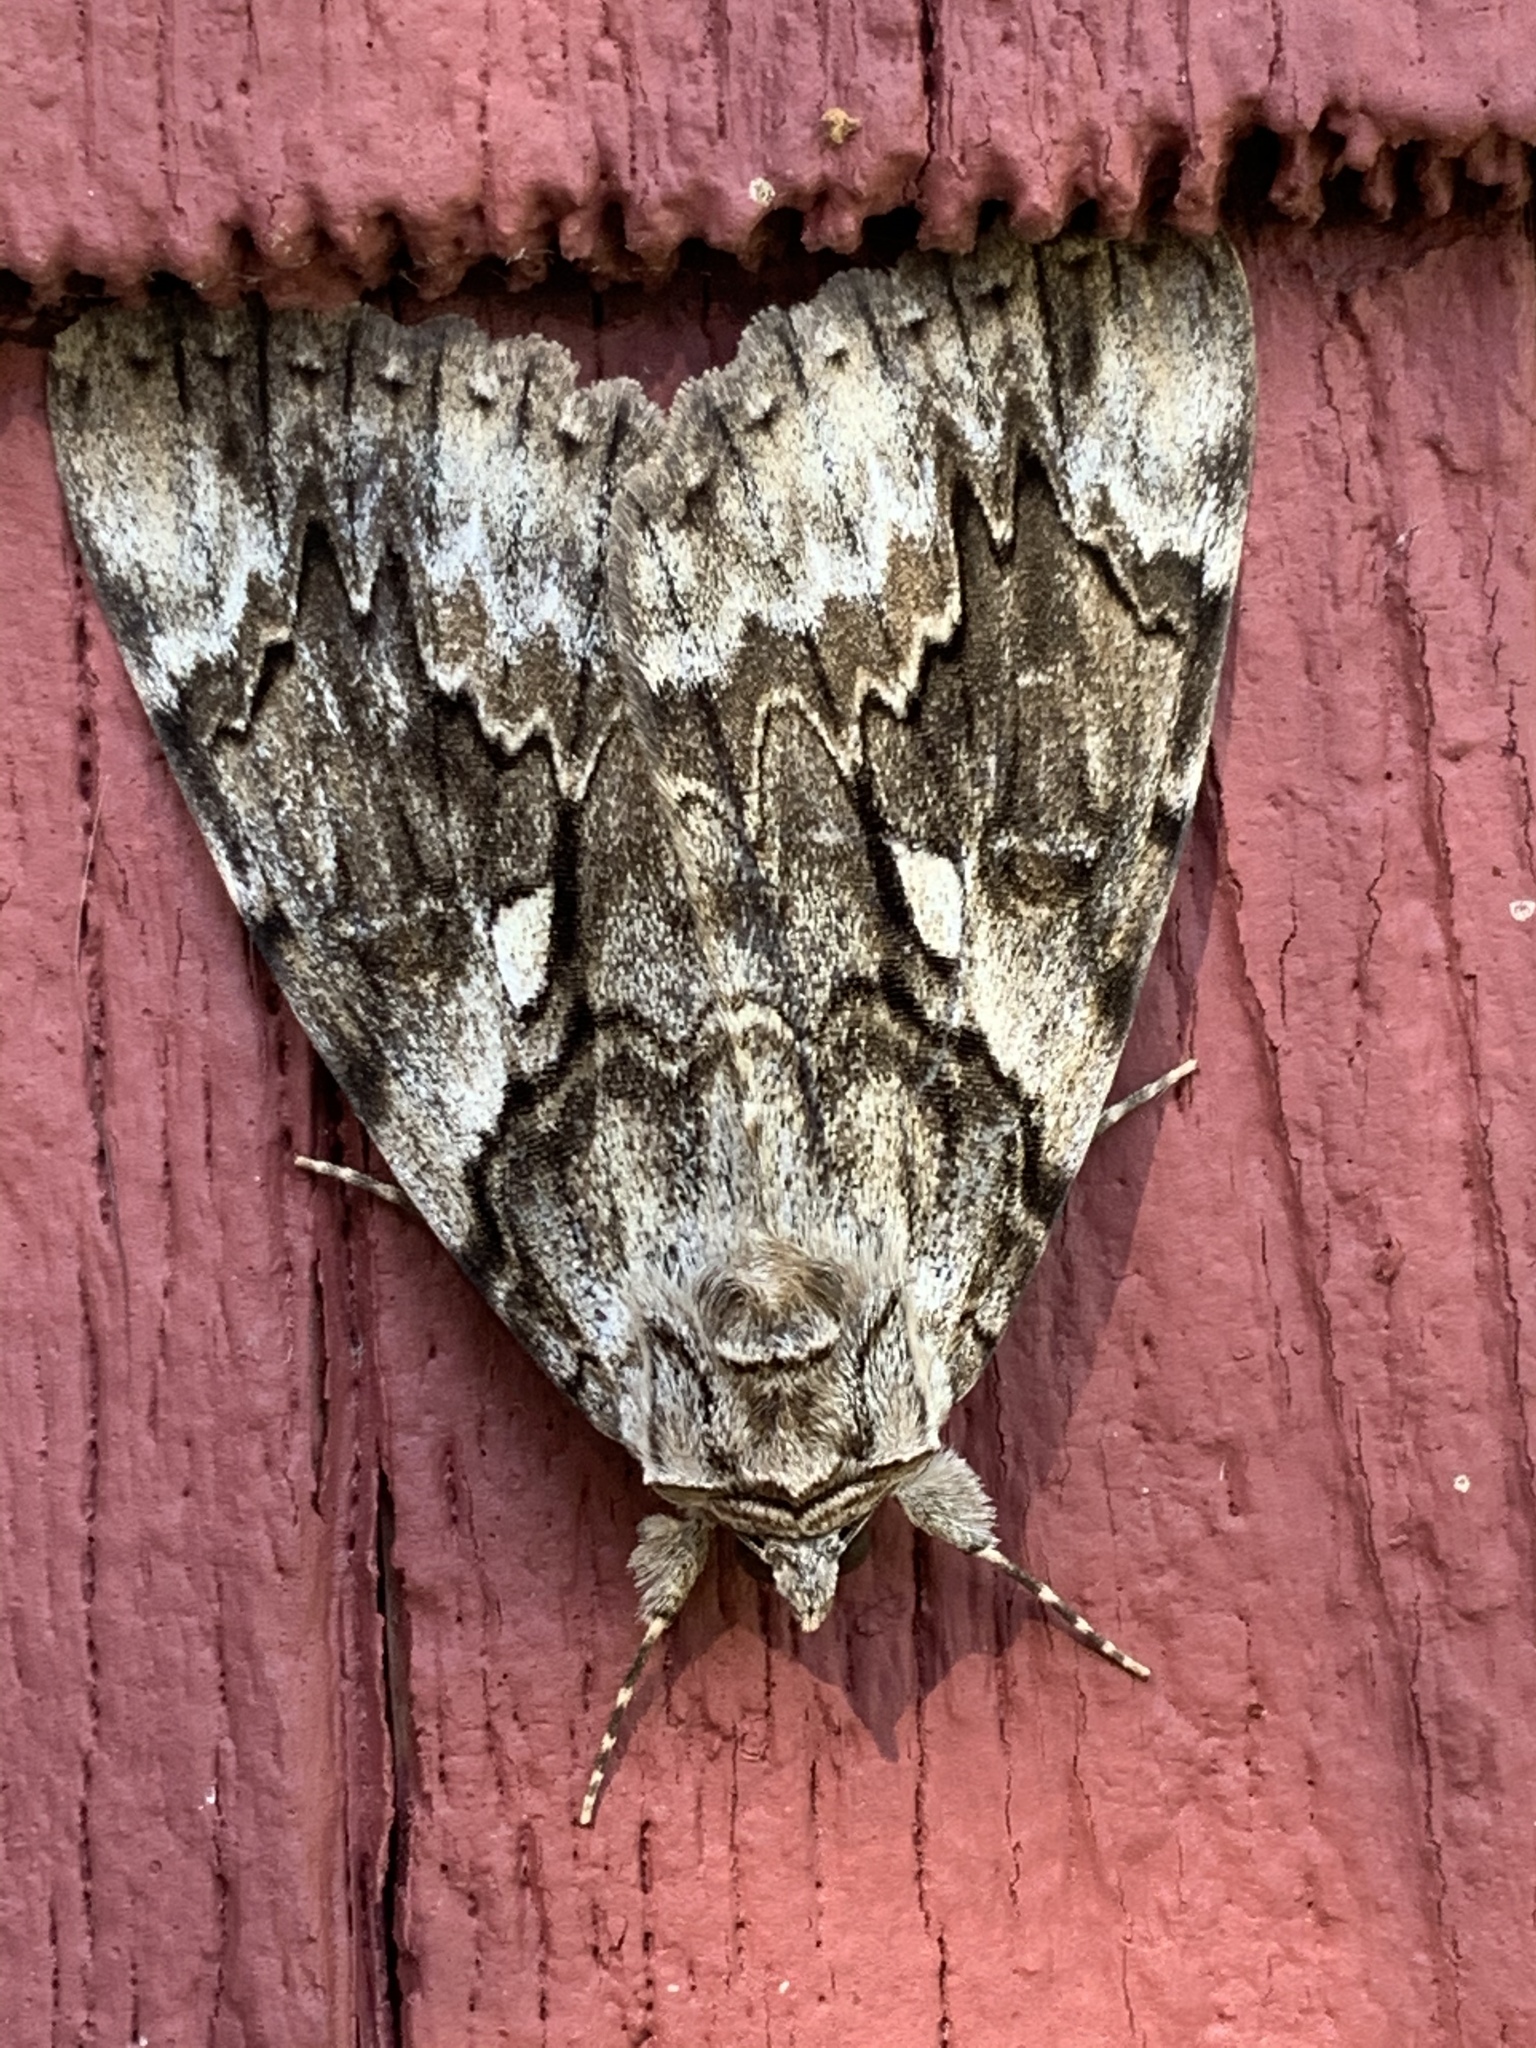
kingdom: Animalia
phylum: Arthropoda
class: Insecta
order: Lepidoptera
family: Erebidae
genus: Catocala
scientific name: Catocala cerogama
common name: Yellow banded underwing
